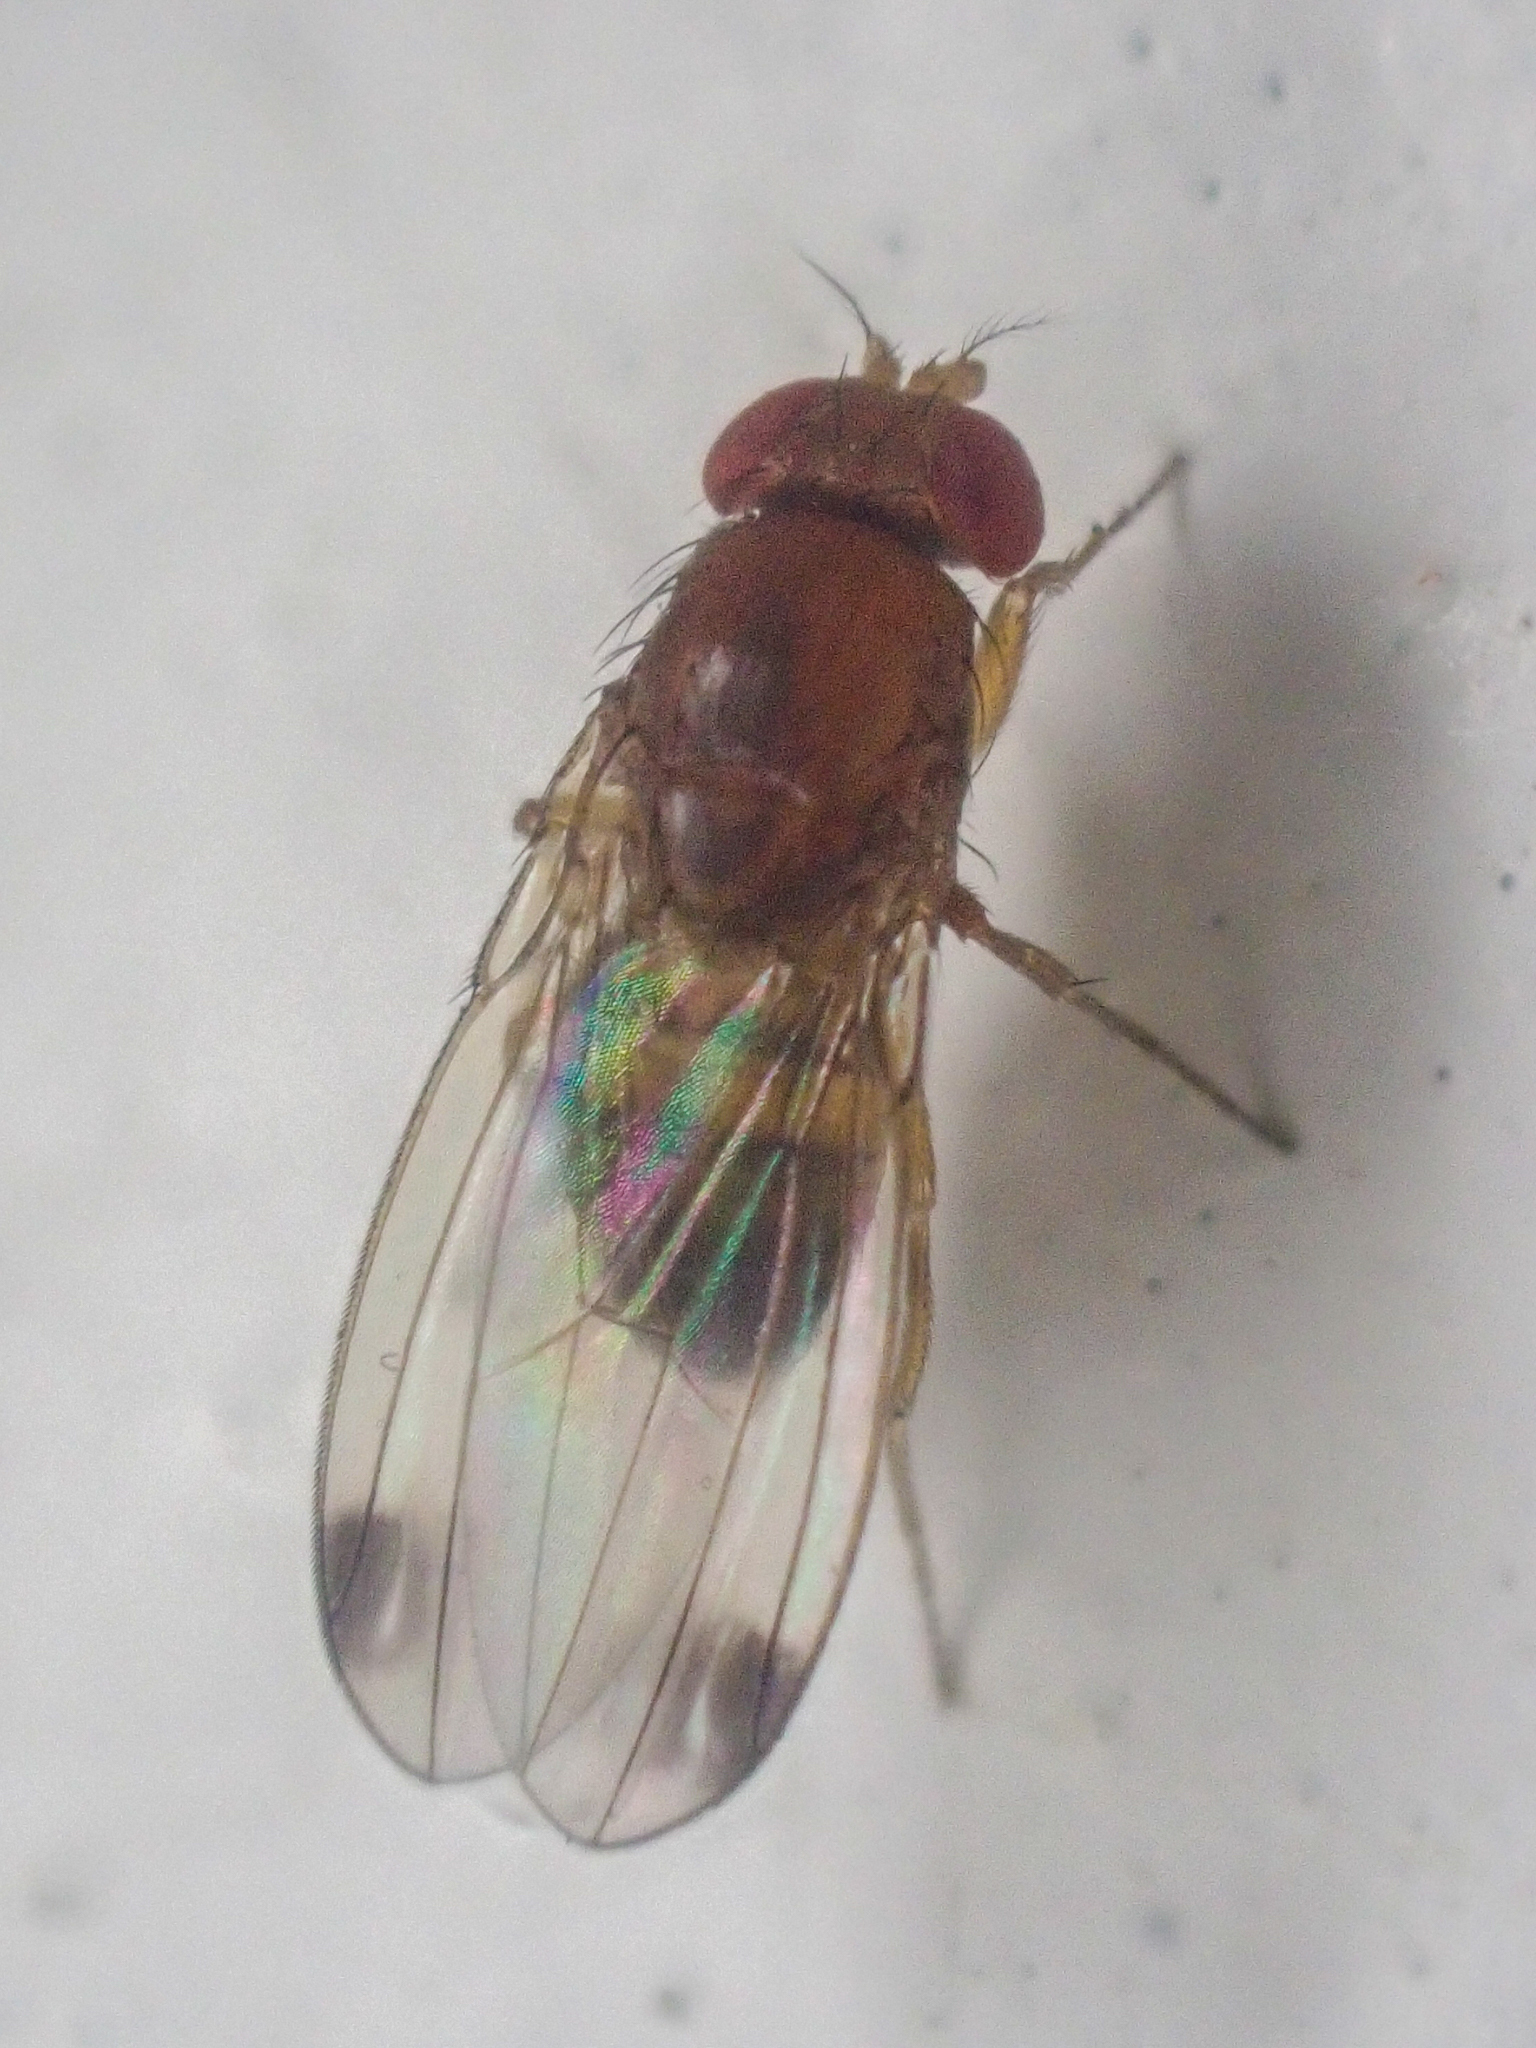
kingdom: Animalia
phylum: Arthropoda
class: Insecta
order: Diptera
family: Drosophilidae
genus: Drosophila
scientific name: Drosophila suzukii
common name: Spotted-wing drosophila
